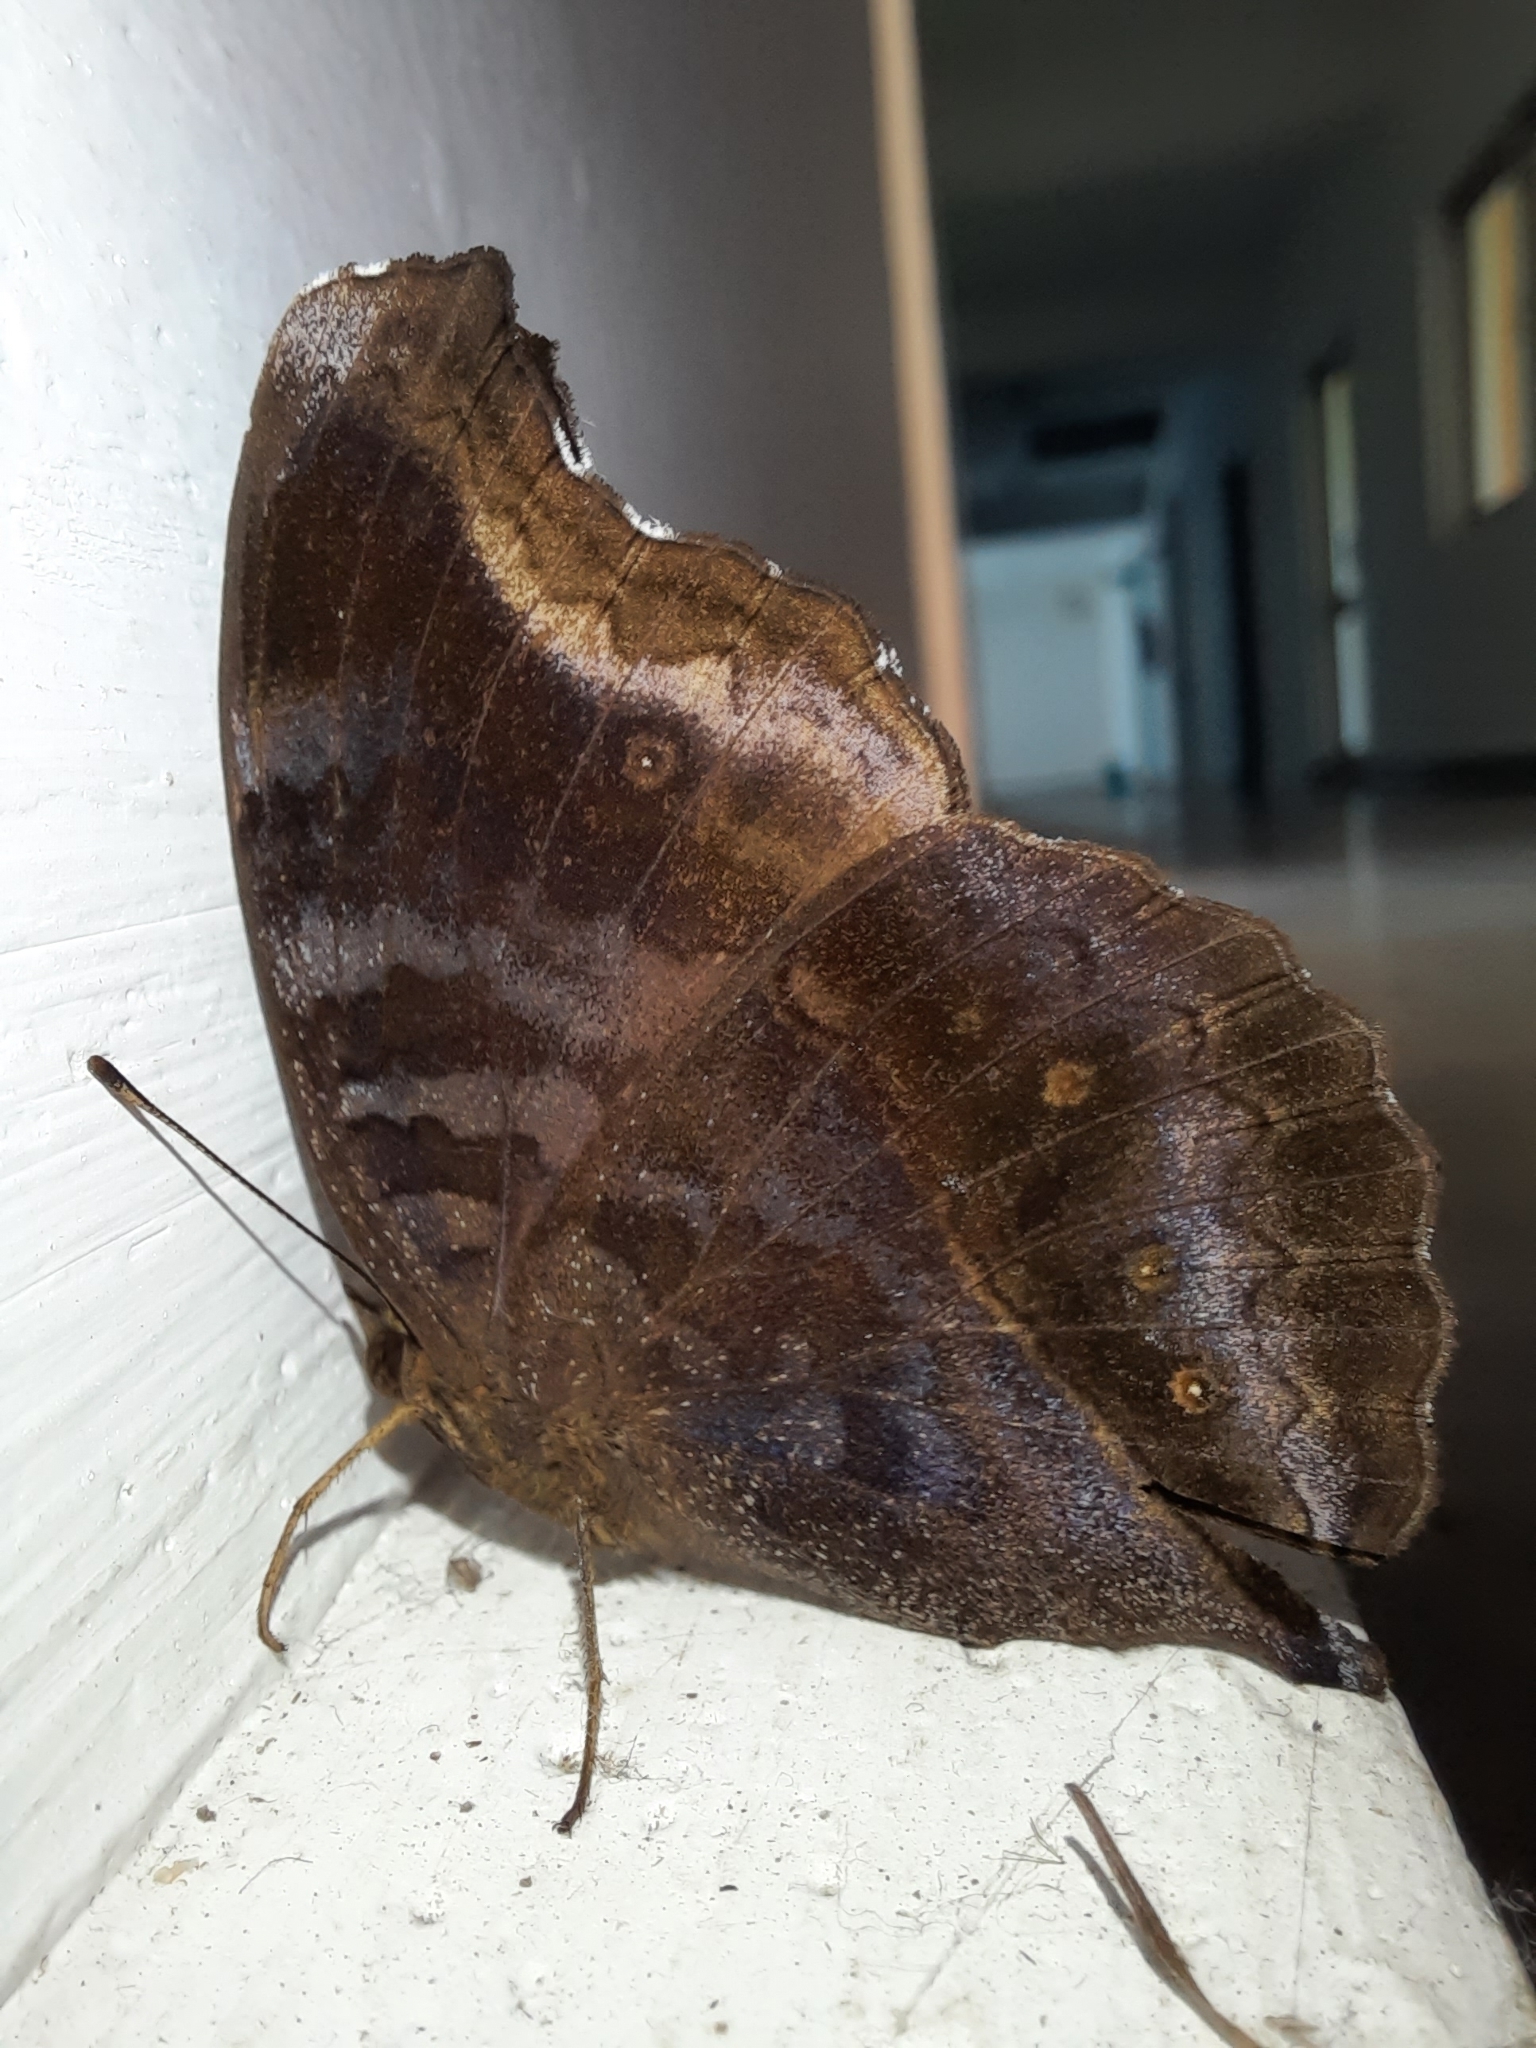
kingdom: Animalia
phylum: Arthropoda
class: Insecta
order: Lepidoptera
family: Nymphalidae
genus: Junonia
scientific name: Junonia iphita
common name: Chocolate pansy
